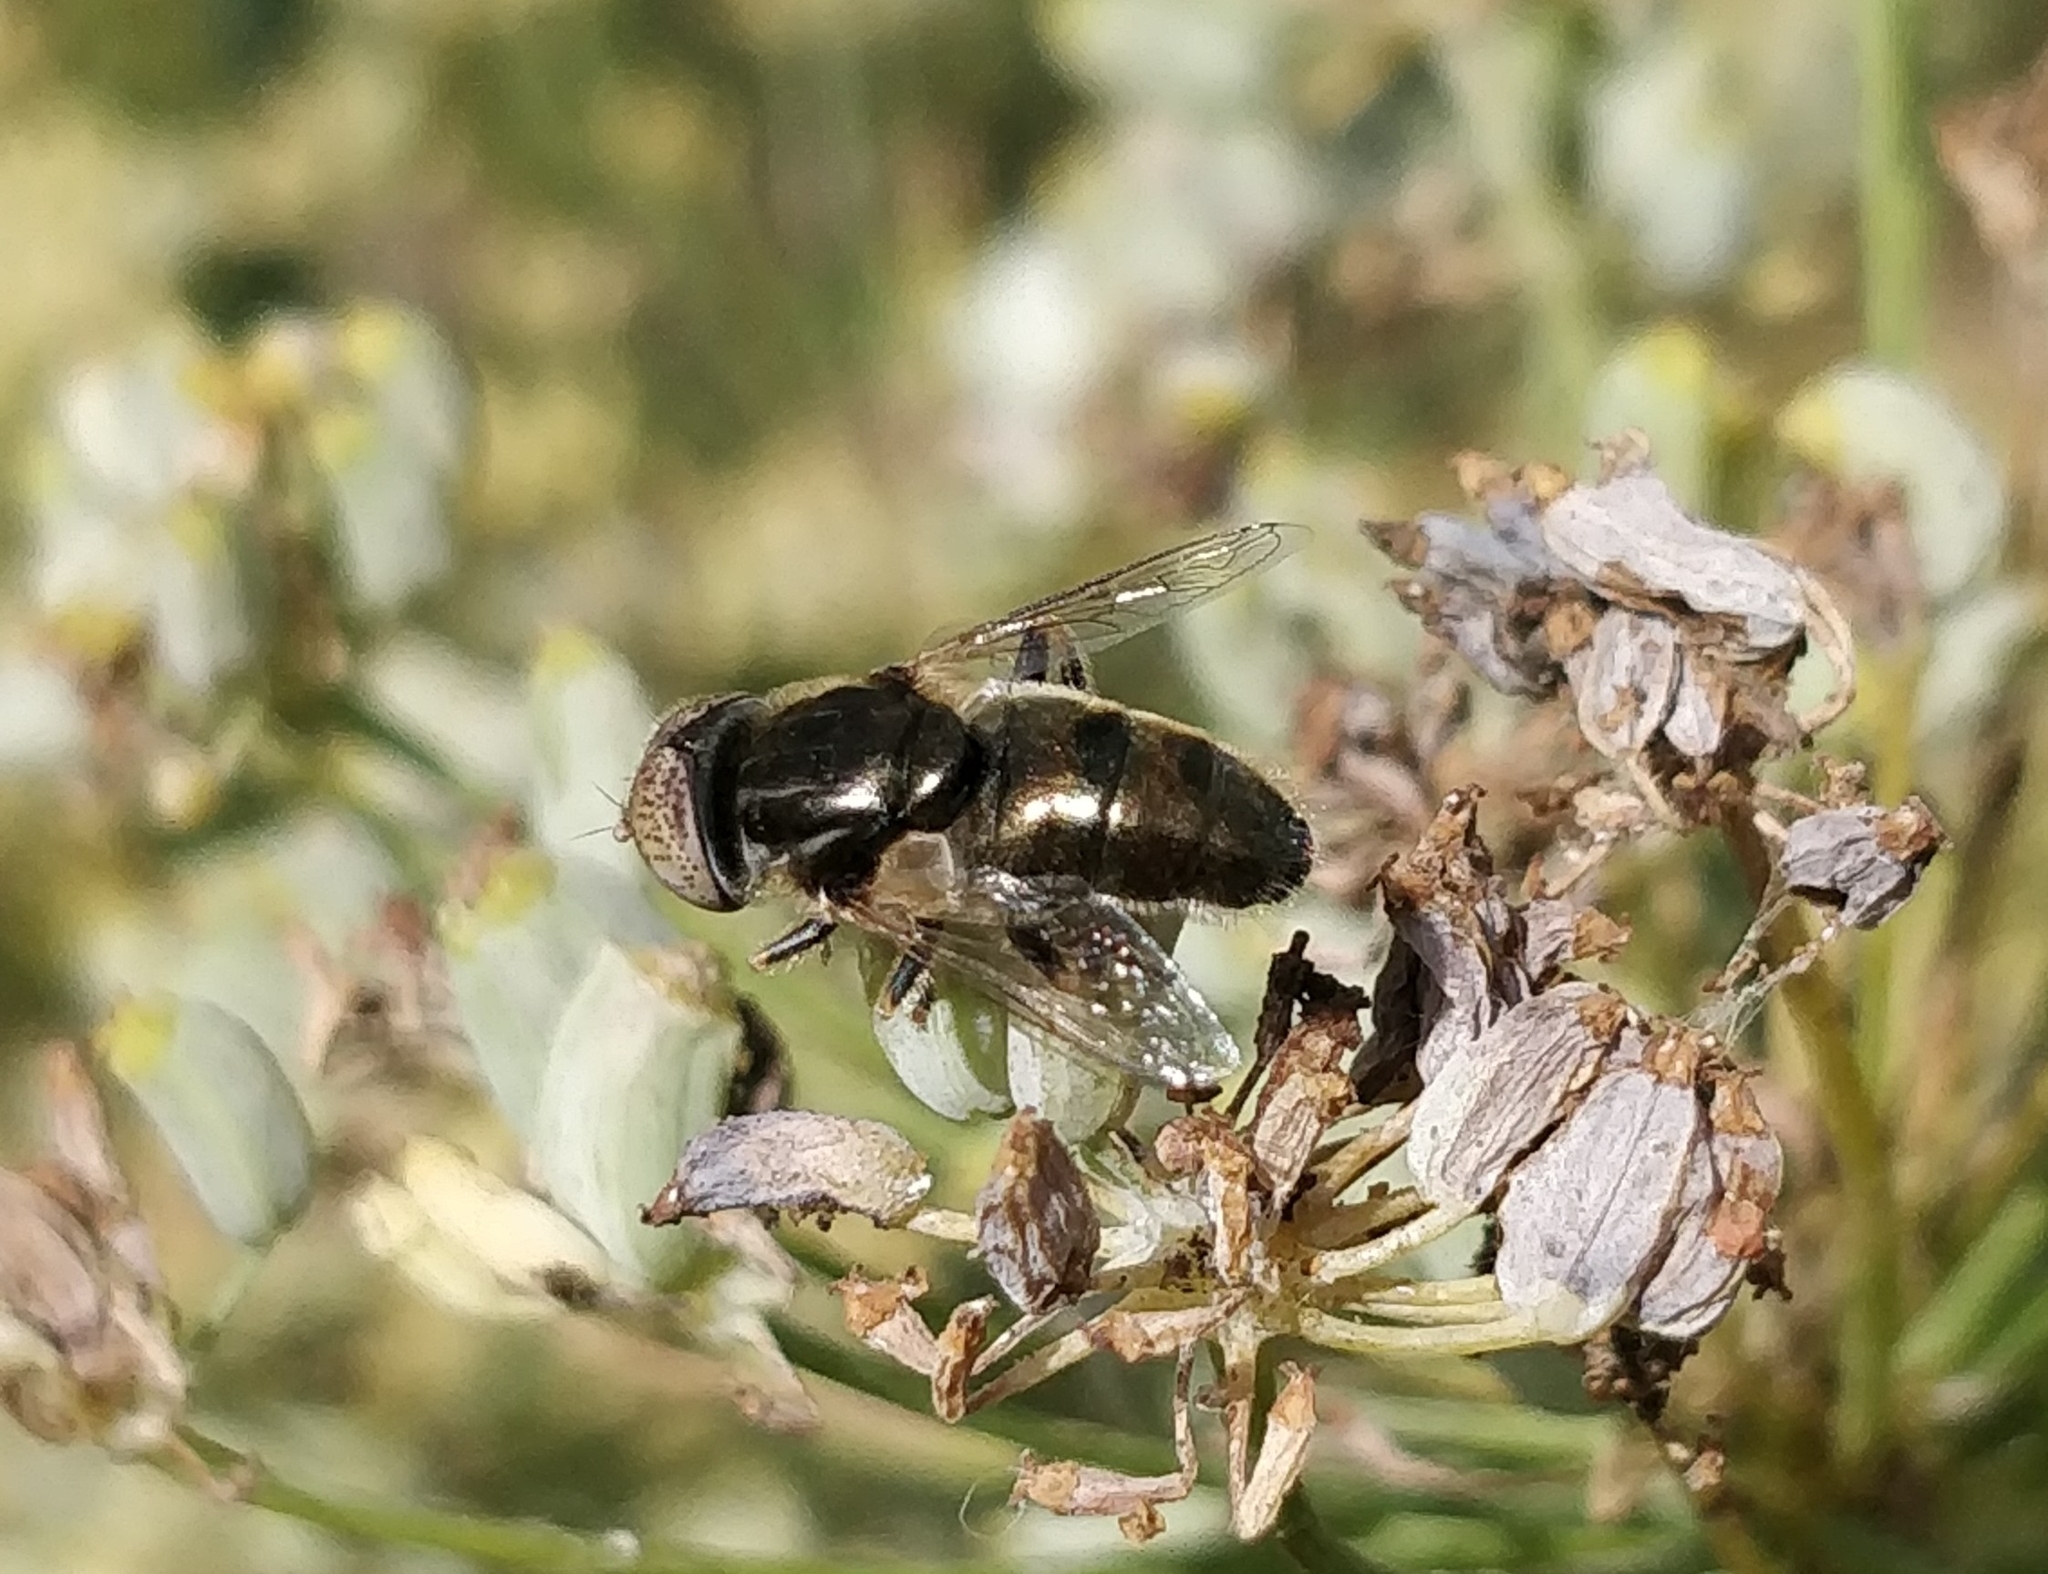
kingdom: Animalia
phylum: Arthropoda
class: Insecta
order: Diptera
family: Syrphidae
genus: Eristalinus
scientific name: Eristalinus aeneus
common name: Syrphid fly
